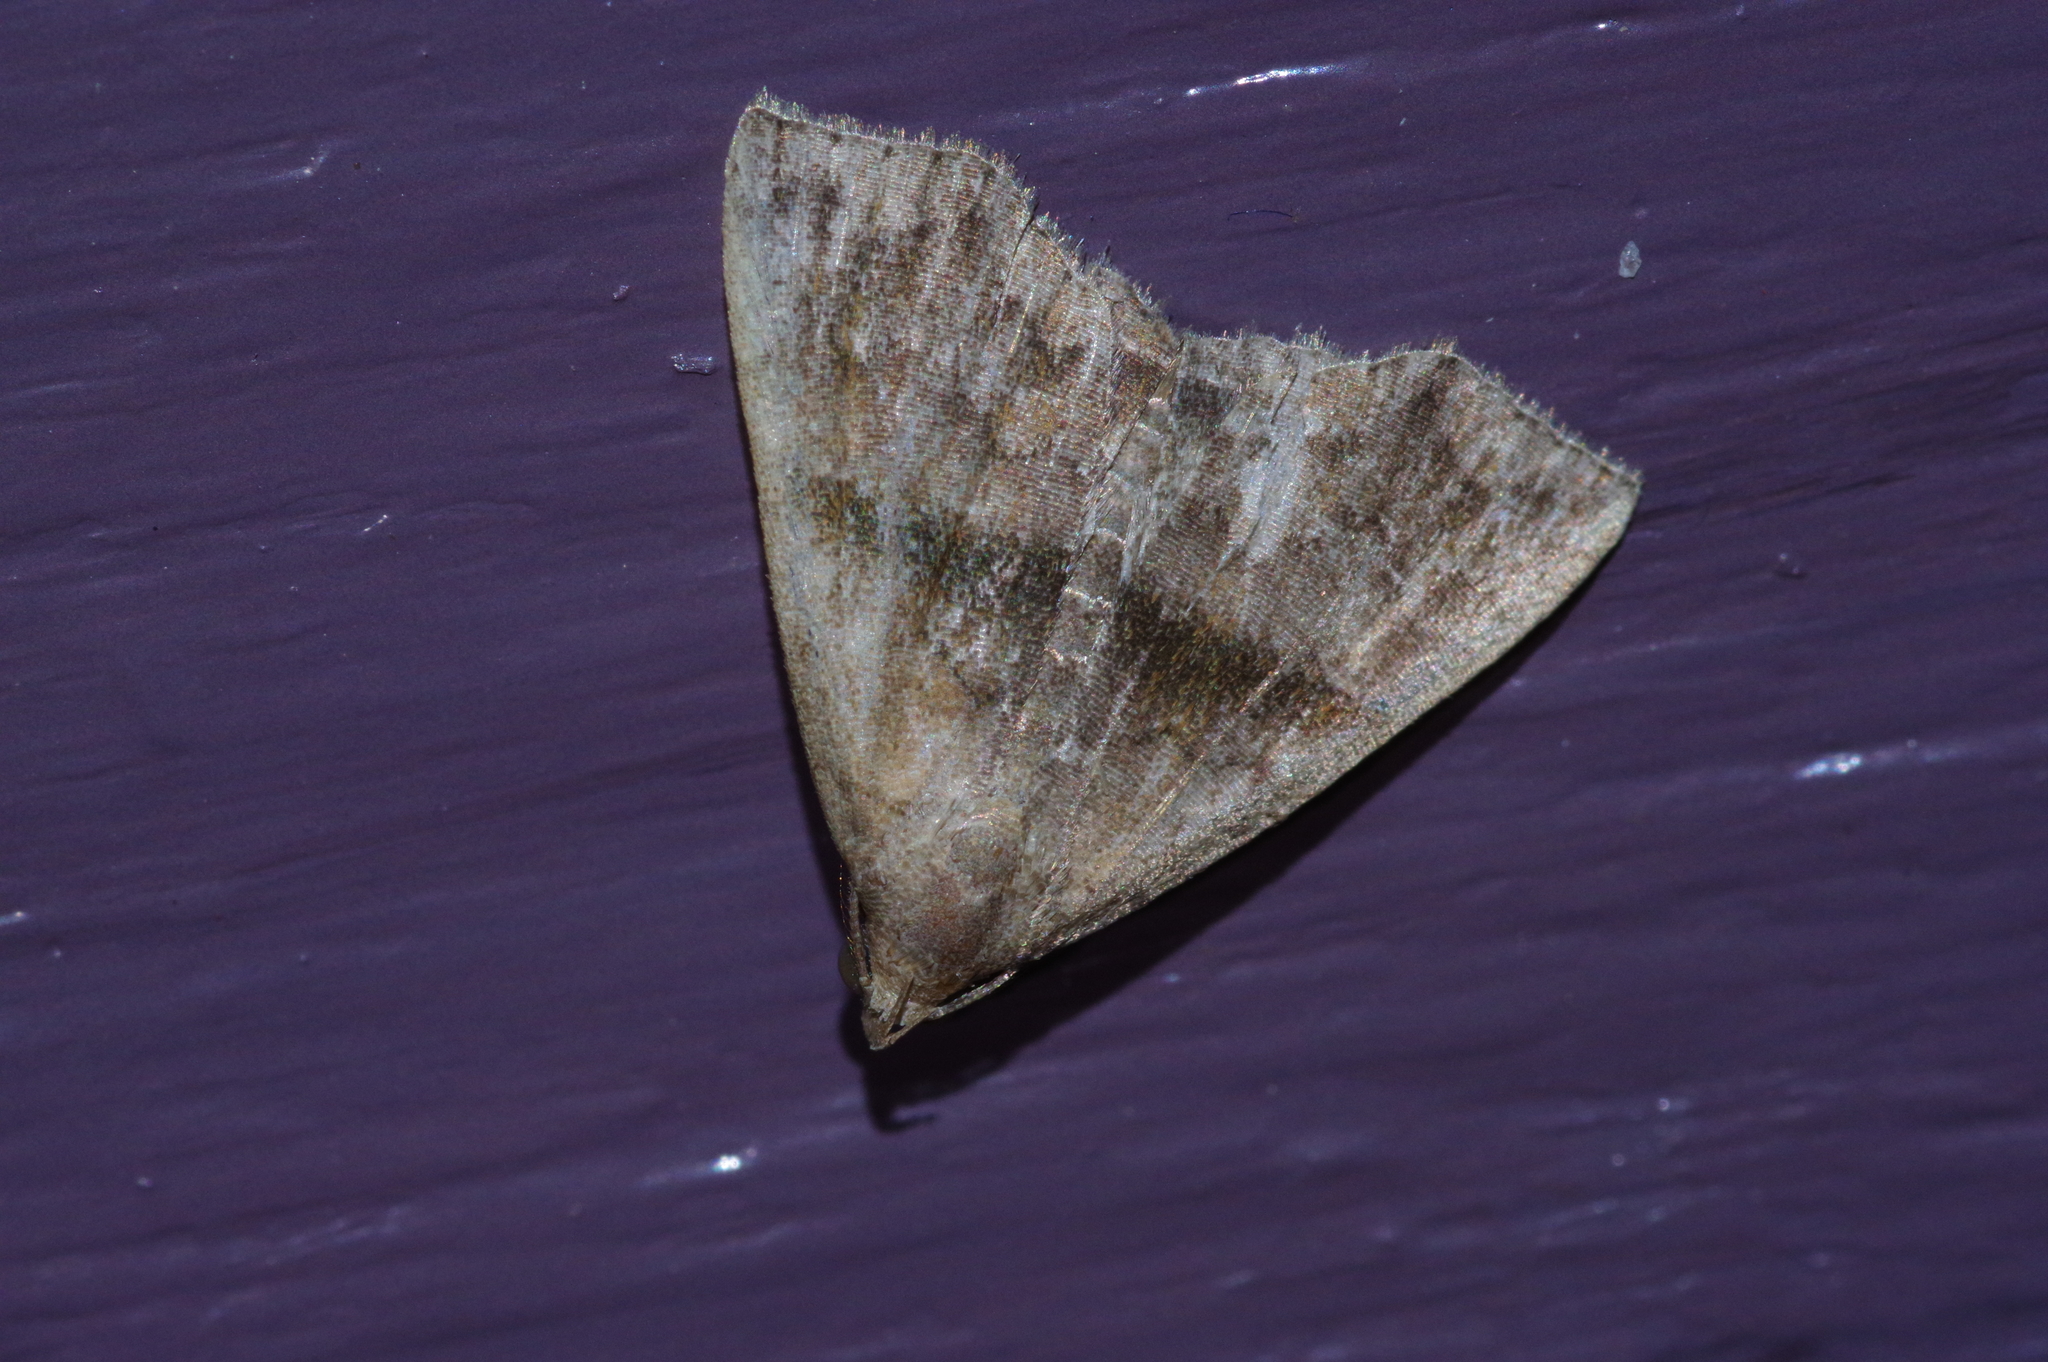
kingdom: Animalia
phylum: Arthropoda
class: Insecta
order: Lepidoptera
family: Erebidae
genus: Polypogon
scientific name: Polypogon Hipoepa fractalis
